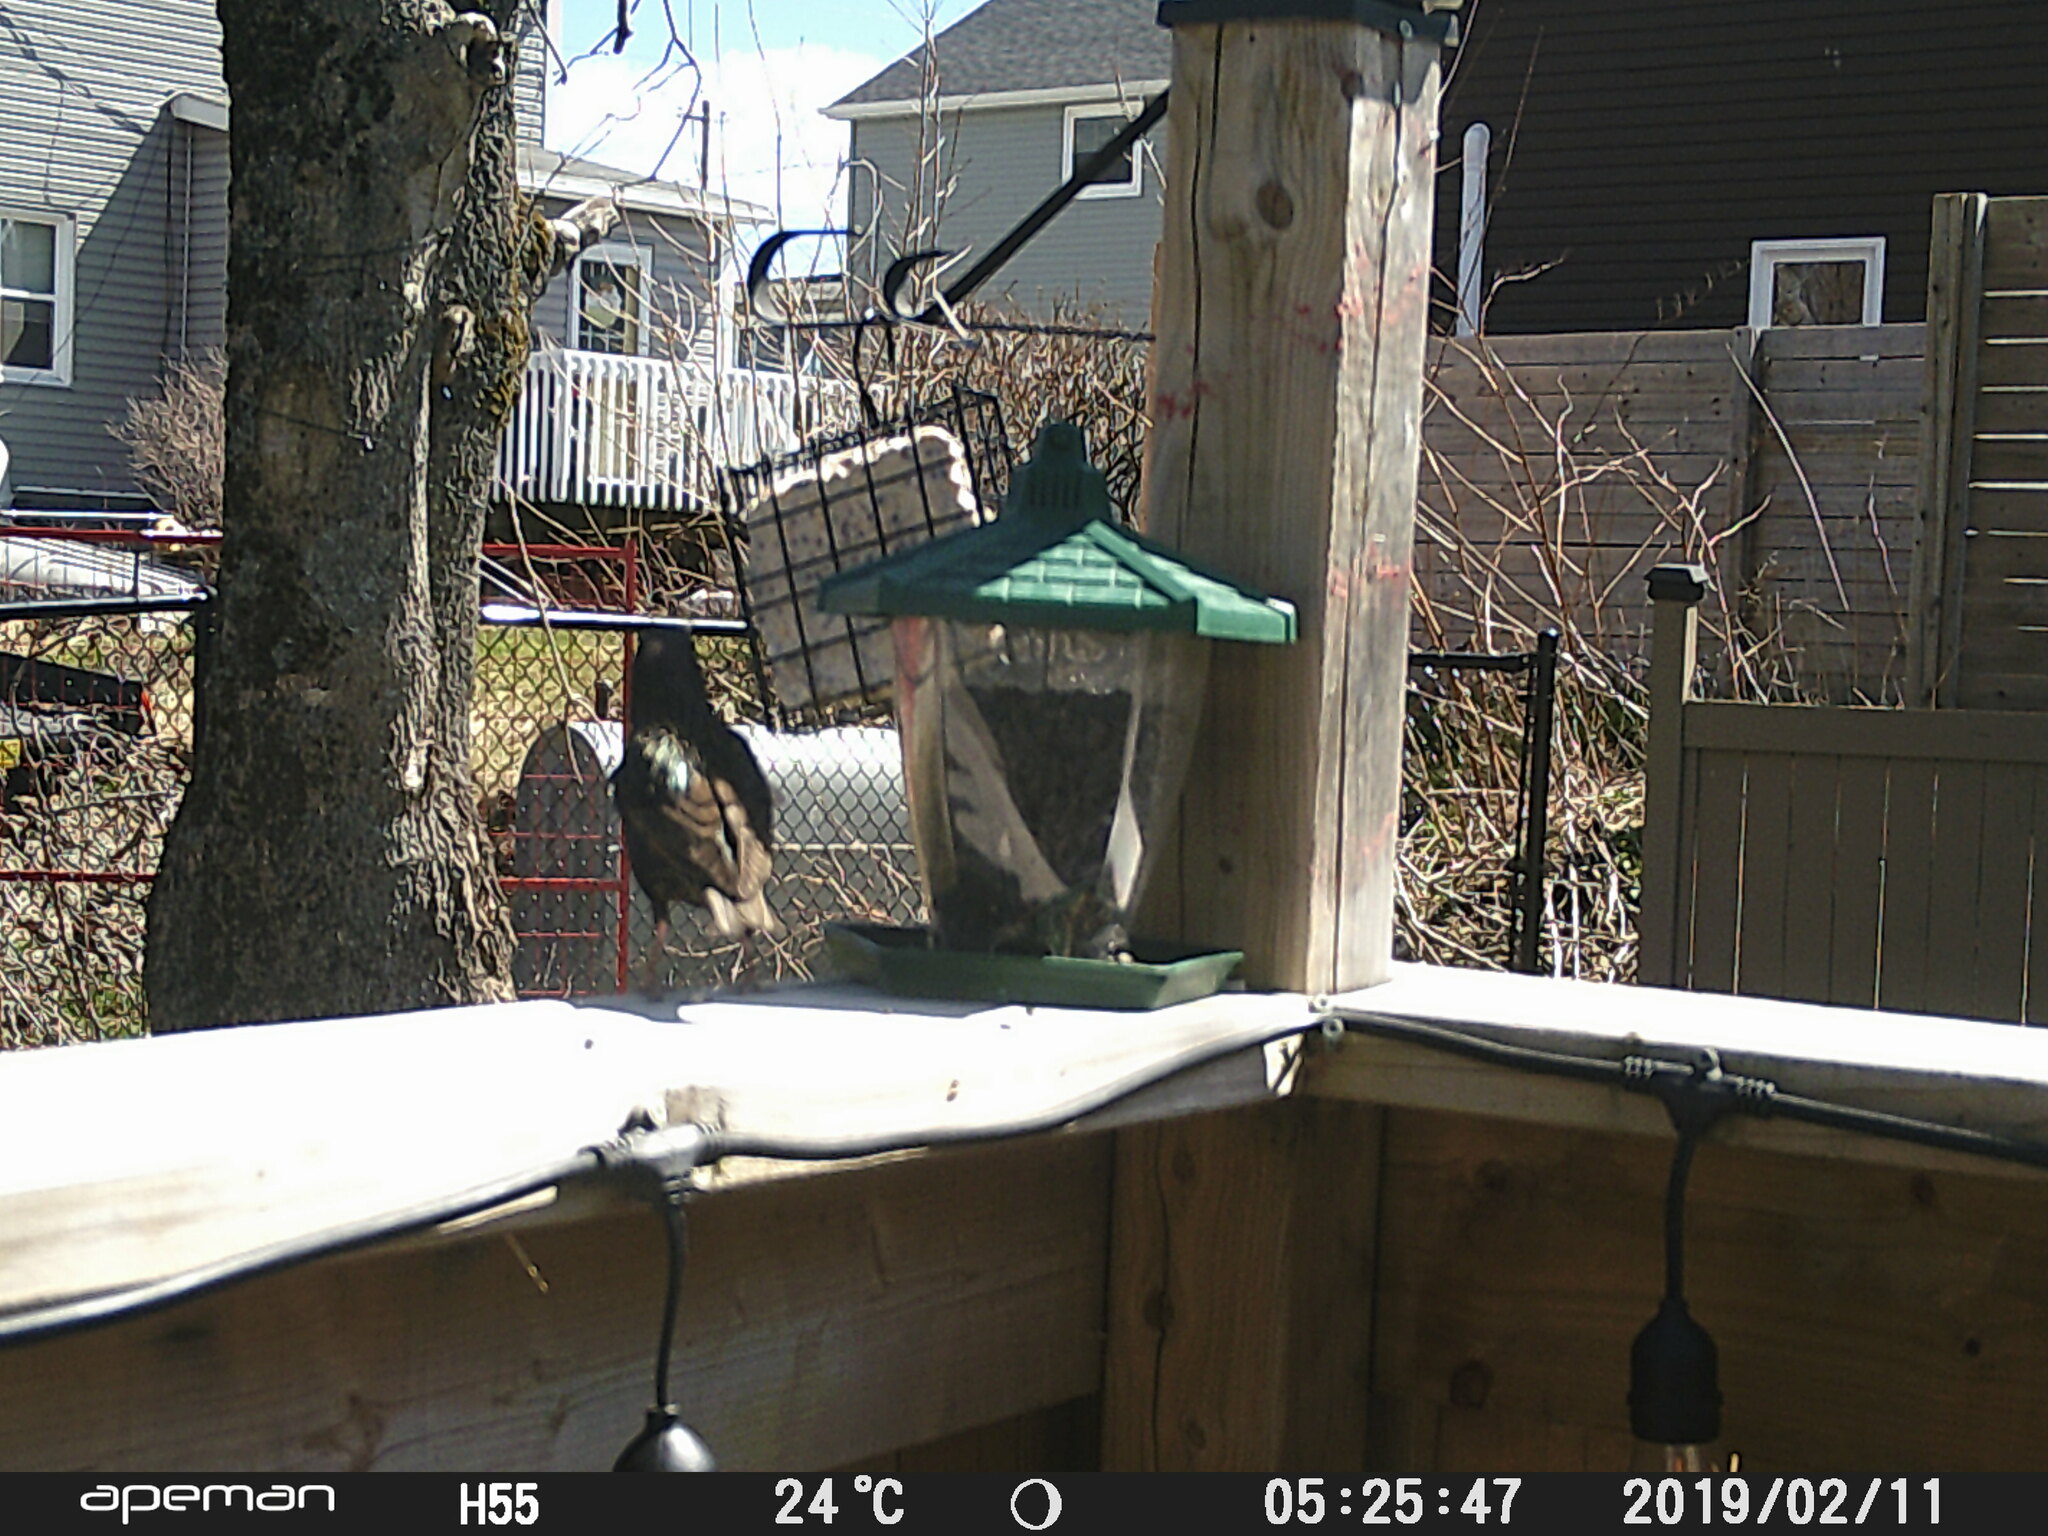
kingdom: Animalia
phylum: Chordata
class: Aves
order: Passeriformes
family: Sturnidae
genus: Sturnus
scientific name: Sturnus vulgaris
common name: Common starling
